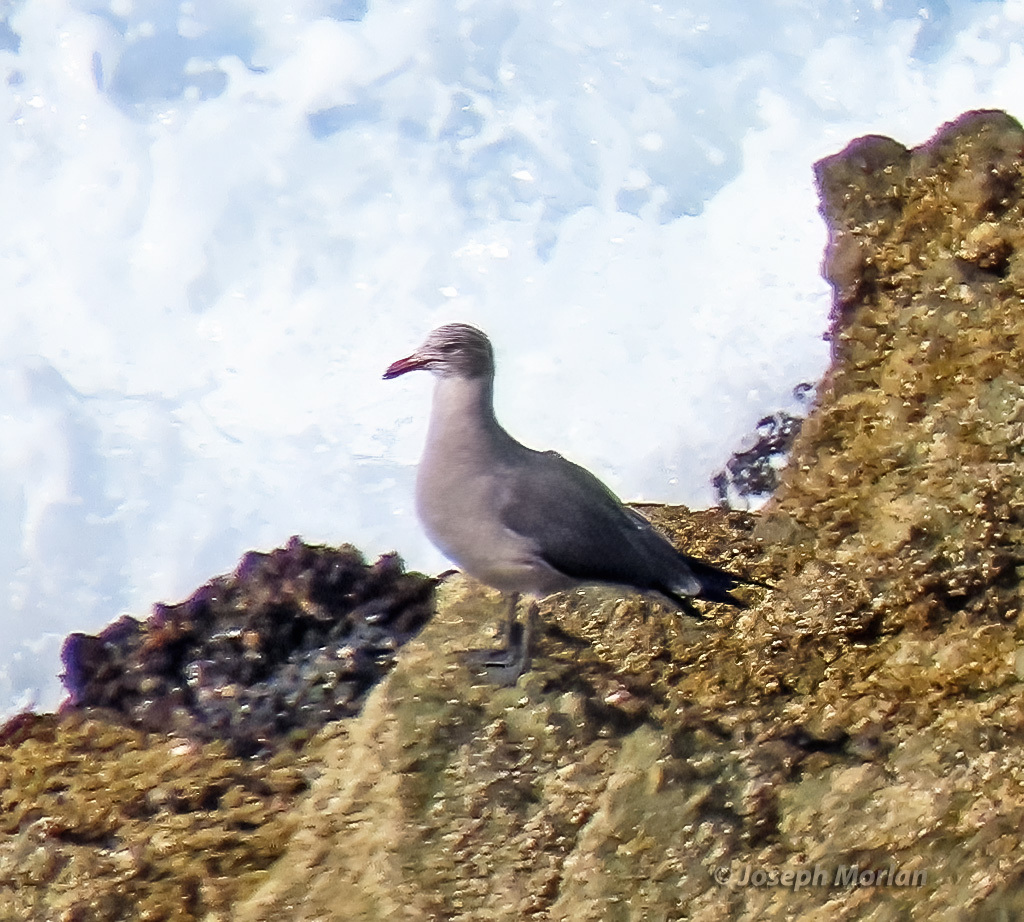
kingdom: Animalia
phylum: Chordata
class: Aves
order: Charadriiformes
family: Laridae
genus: Larus
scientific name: Larus heermanni
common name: Heermann's gull
